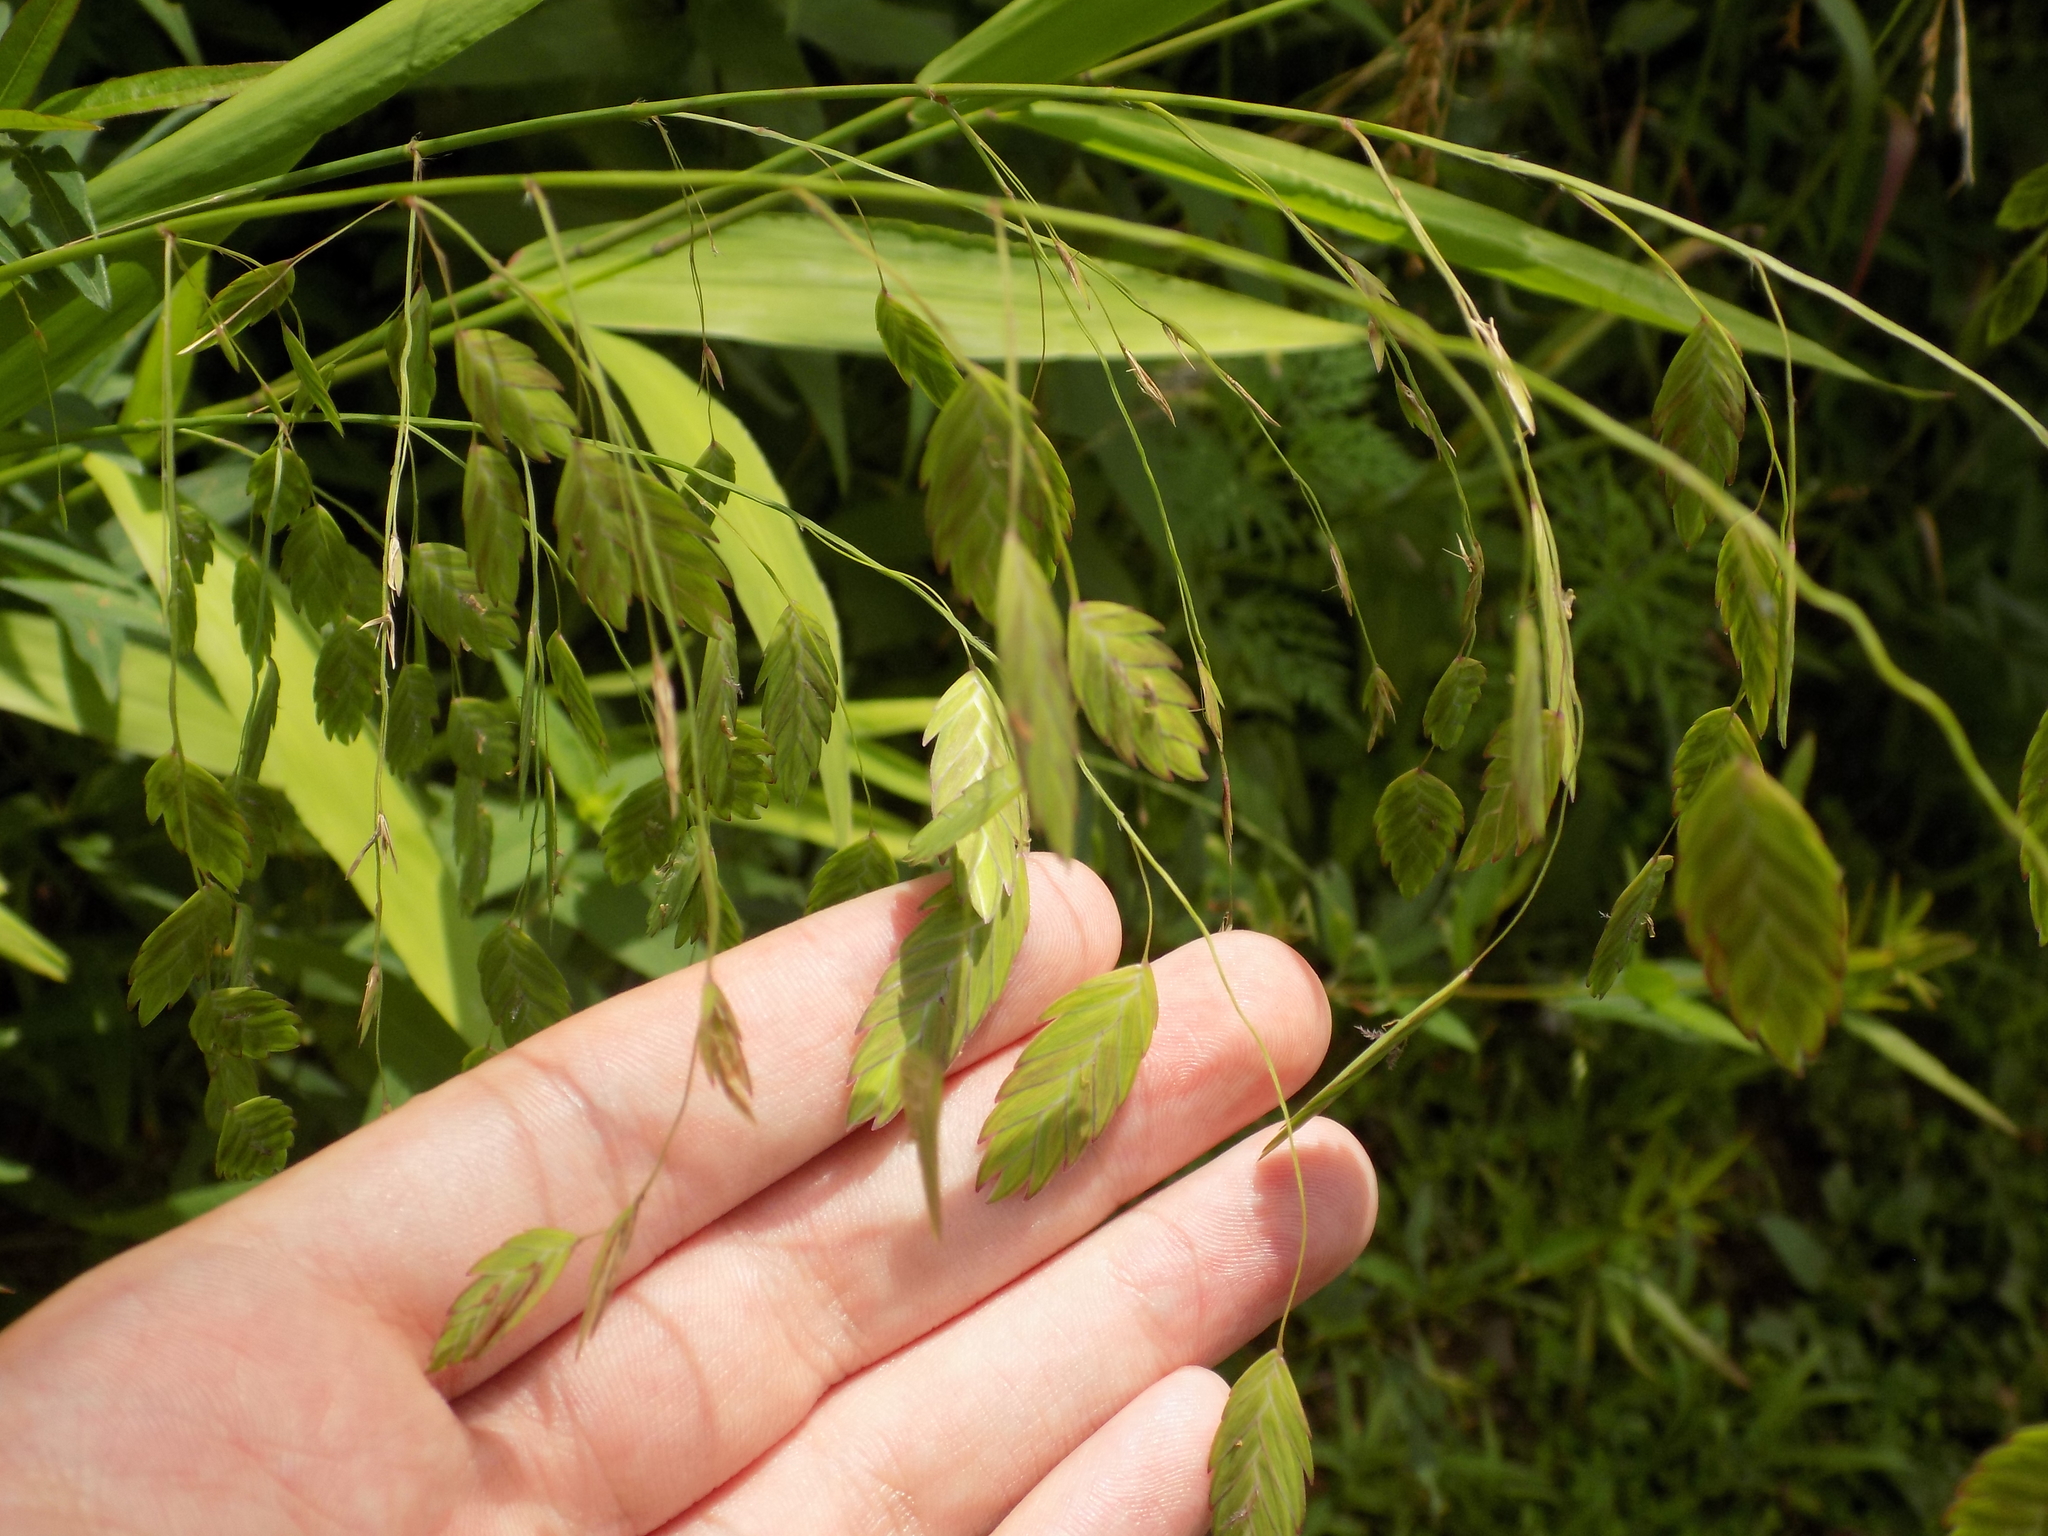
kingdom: Plantae
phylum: Tracheophyta
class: Liliopsida
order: Poales
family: Poaceae
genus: Chasmanthium
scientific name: Chasmanthium latifolium
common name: Broad-leaved chasmanthium
